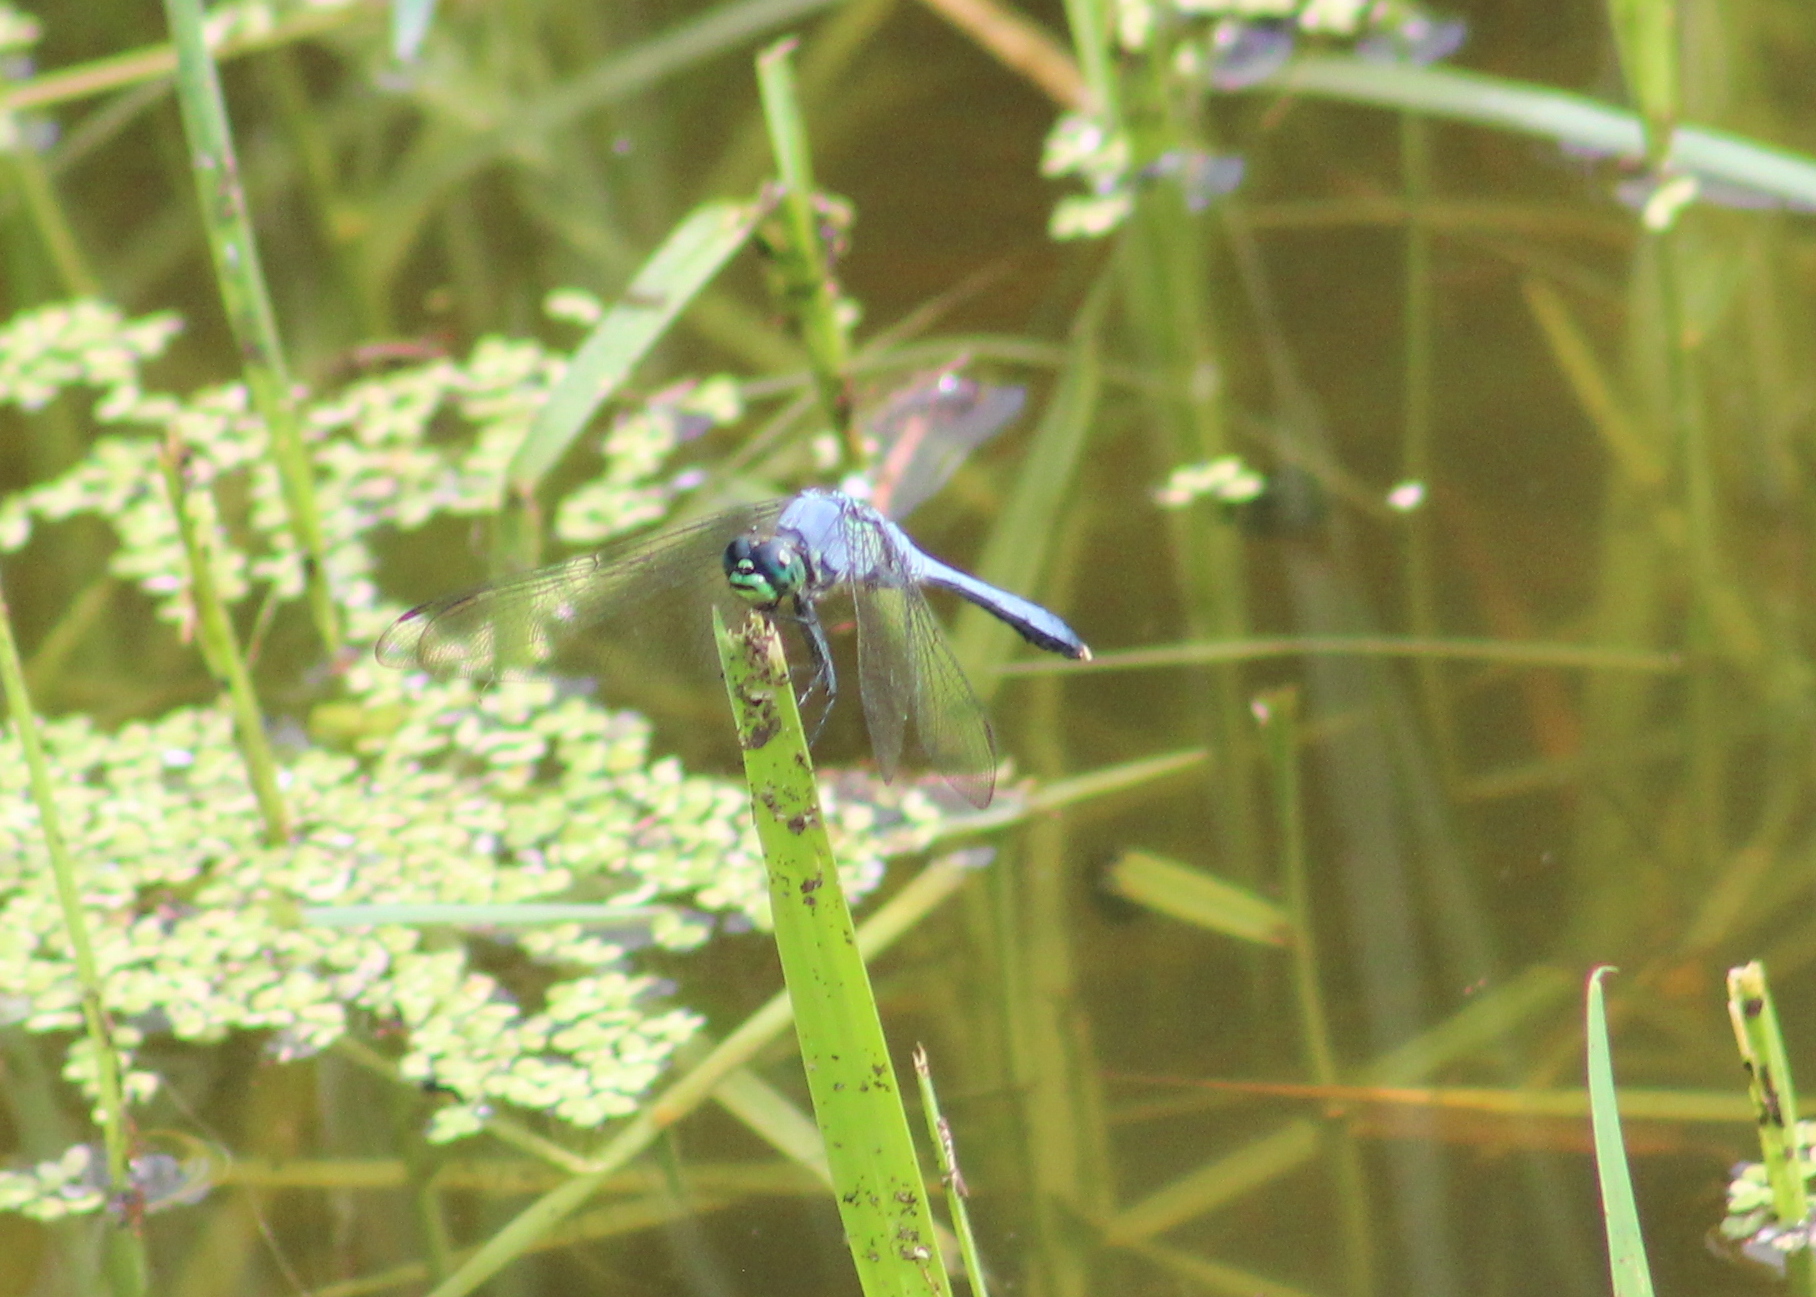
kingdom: Animalia
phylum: Arthropoda
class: Insecta
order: Odonata
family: Libellulidae
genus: Erythemis
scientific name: Erythemis simplicicollis
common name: Eastern pondhawk
